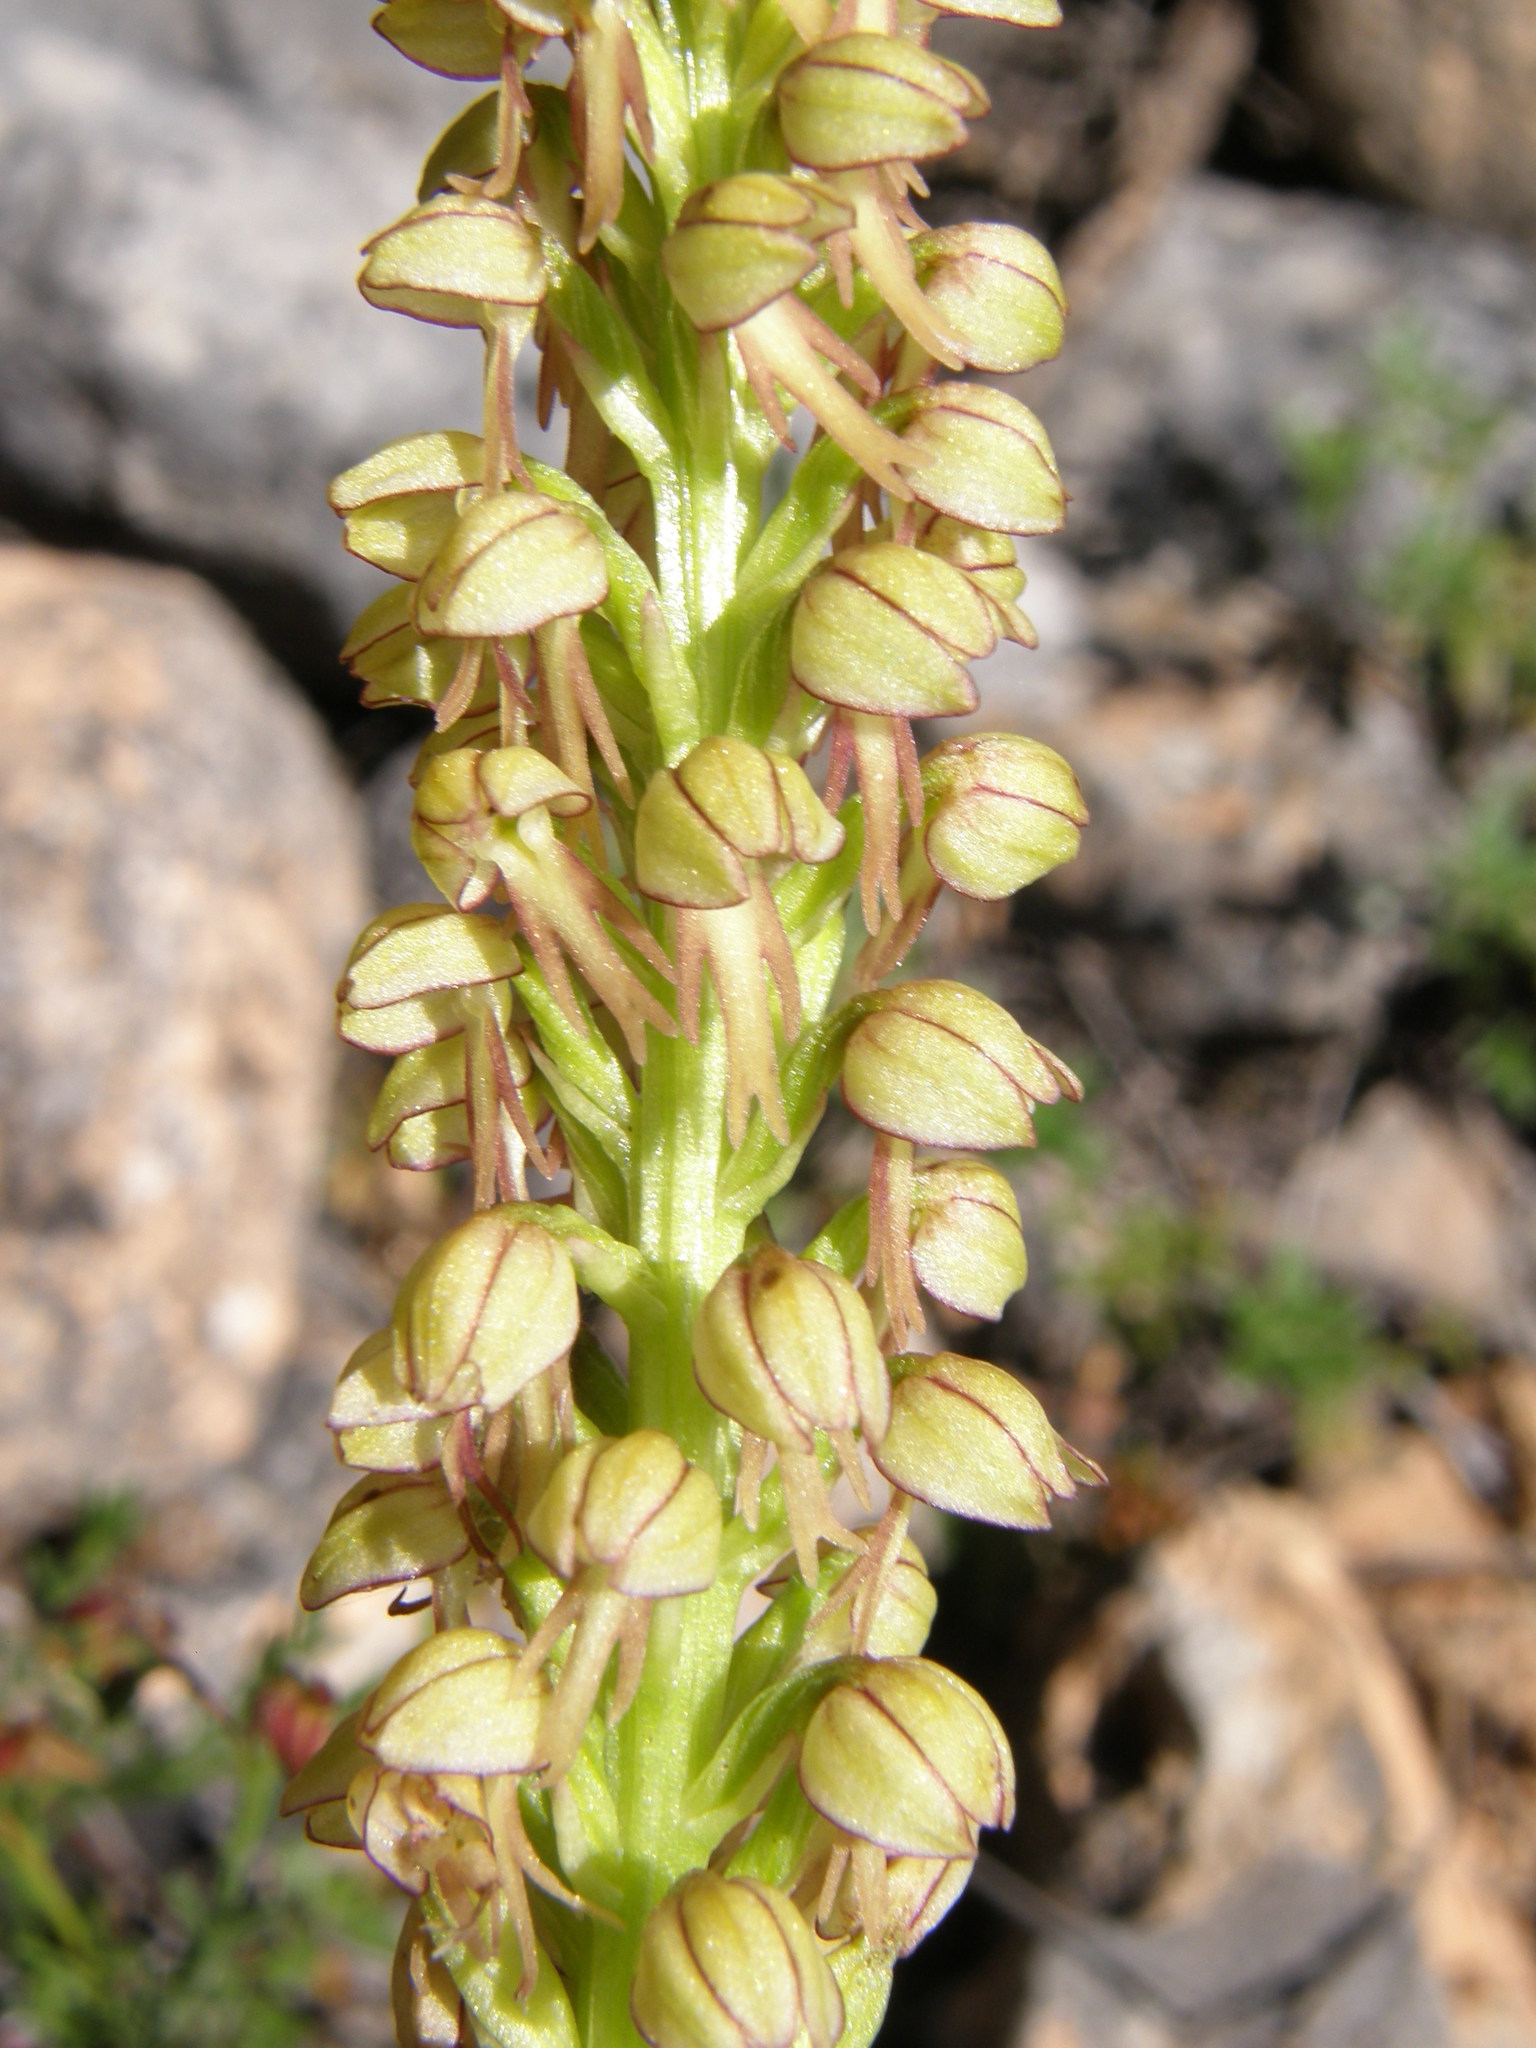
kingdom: Plantae
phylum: Tracheophyta
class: Liliopsida
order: Asparagales
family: Orchidaceae
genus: Orchis
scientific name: Orchis anthropophora
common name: Man orchid
